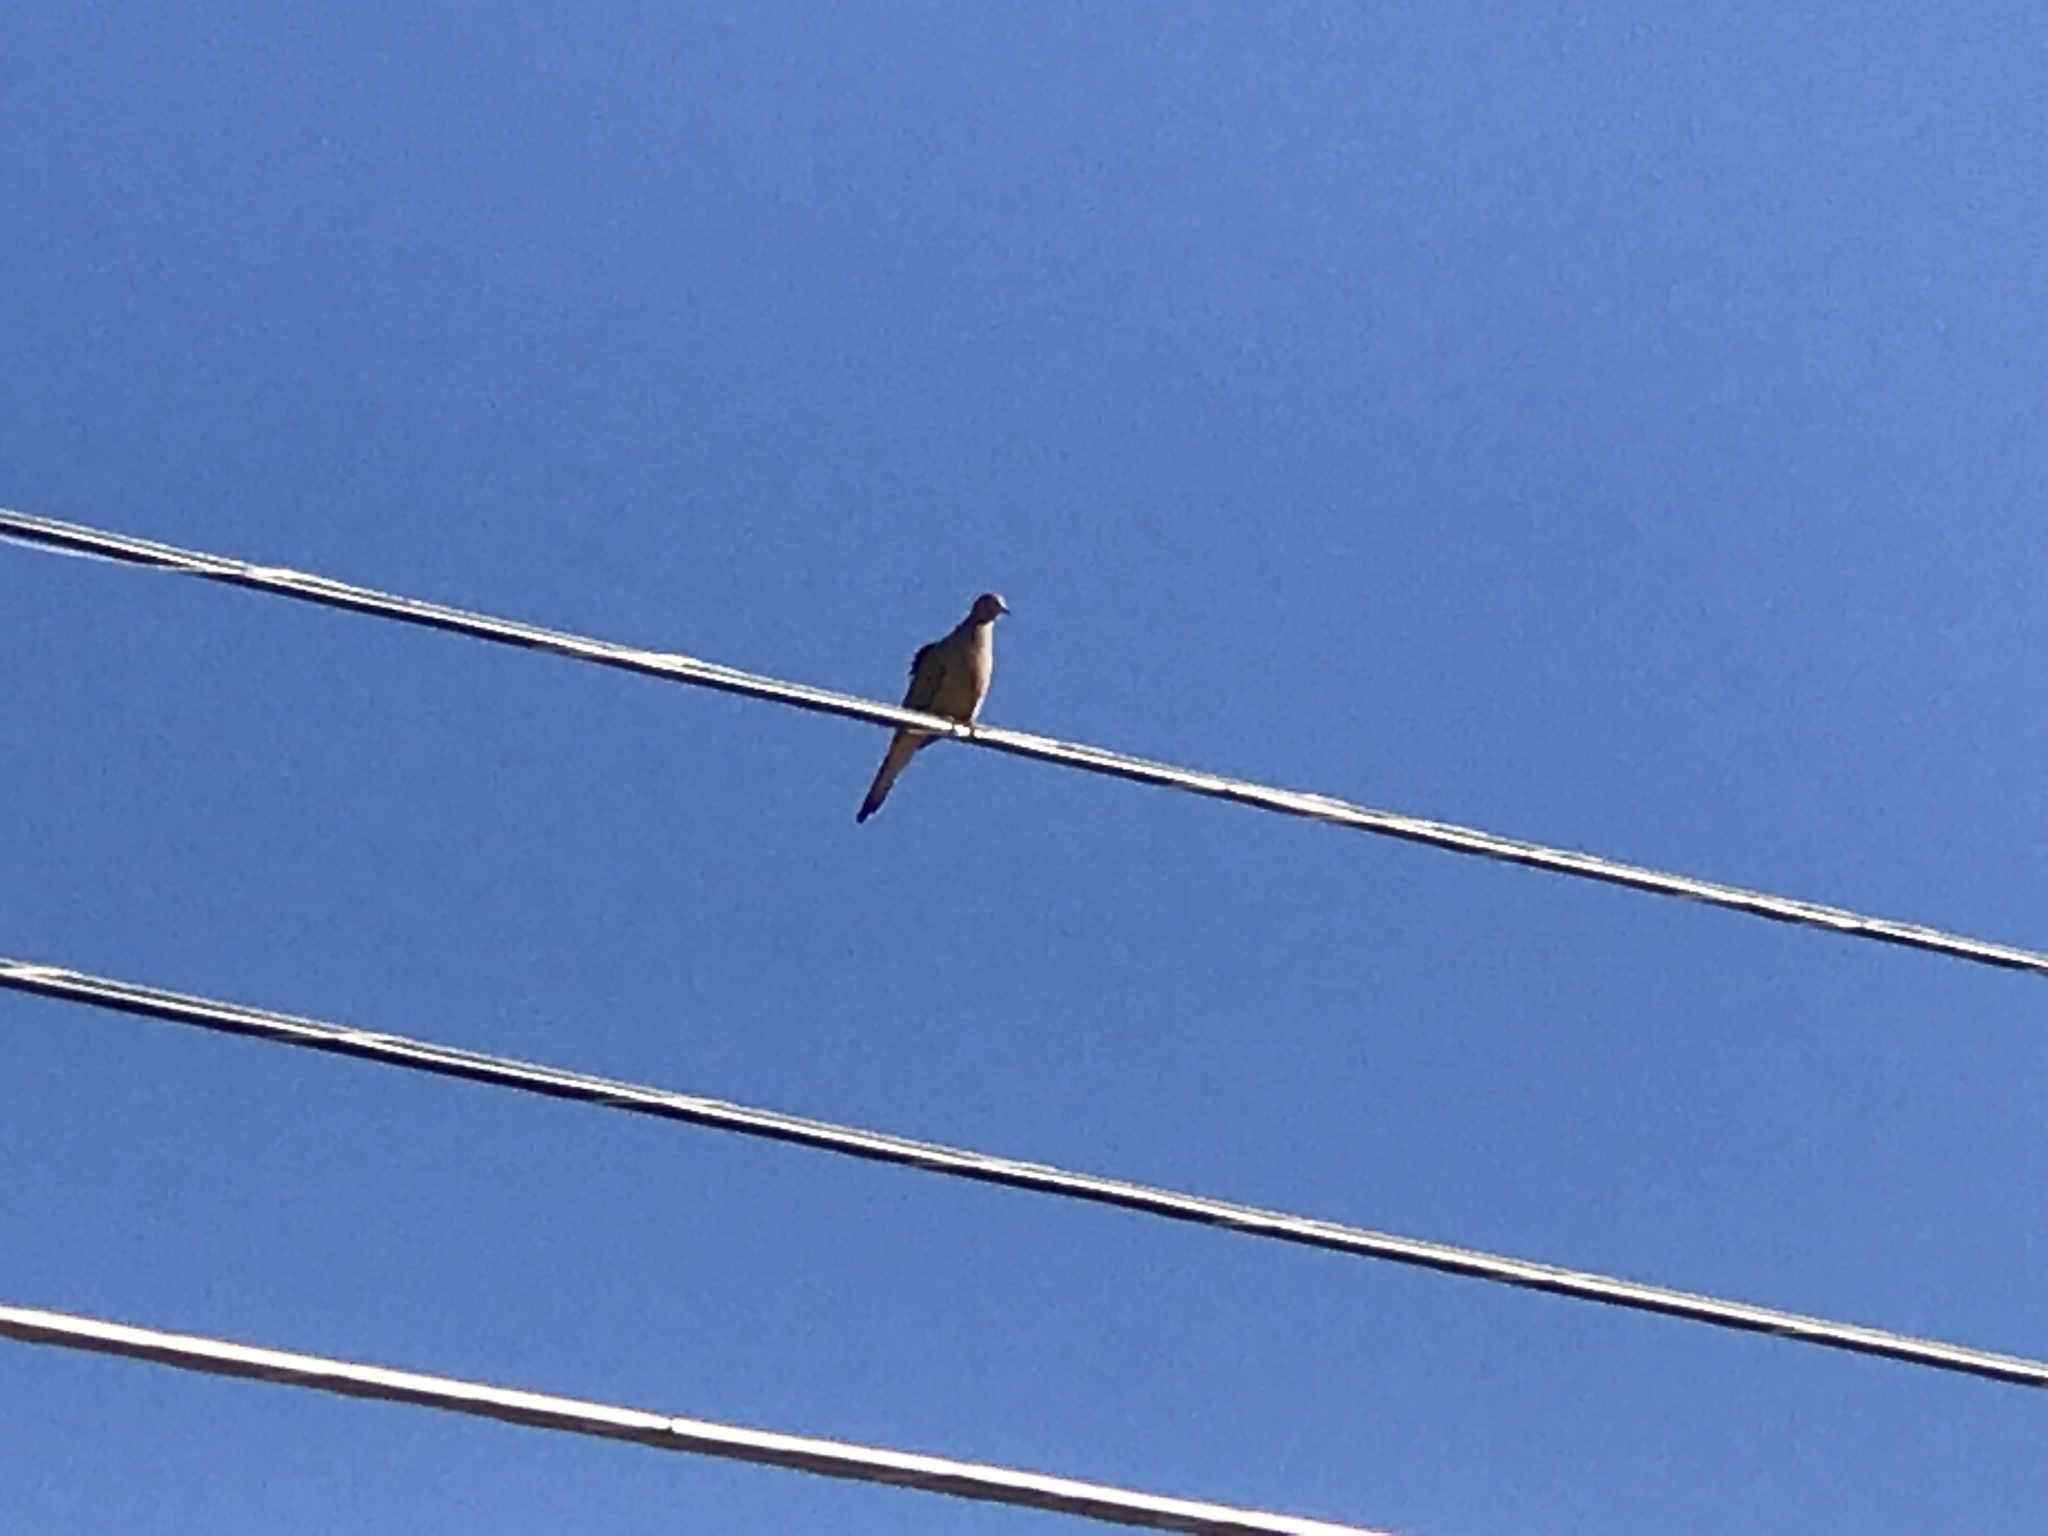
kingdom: Animalia
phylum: Chordata
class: Aves
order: Columbiformes
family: Columbidae
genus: Zenaida
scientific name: Zenaida macroura
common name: Mourning dove
